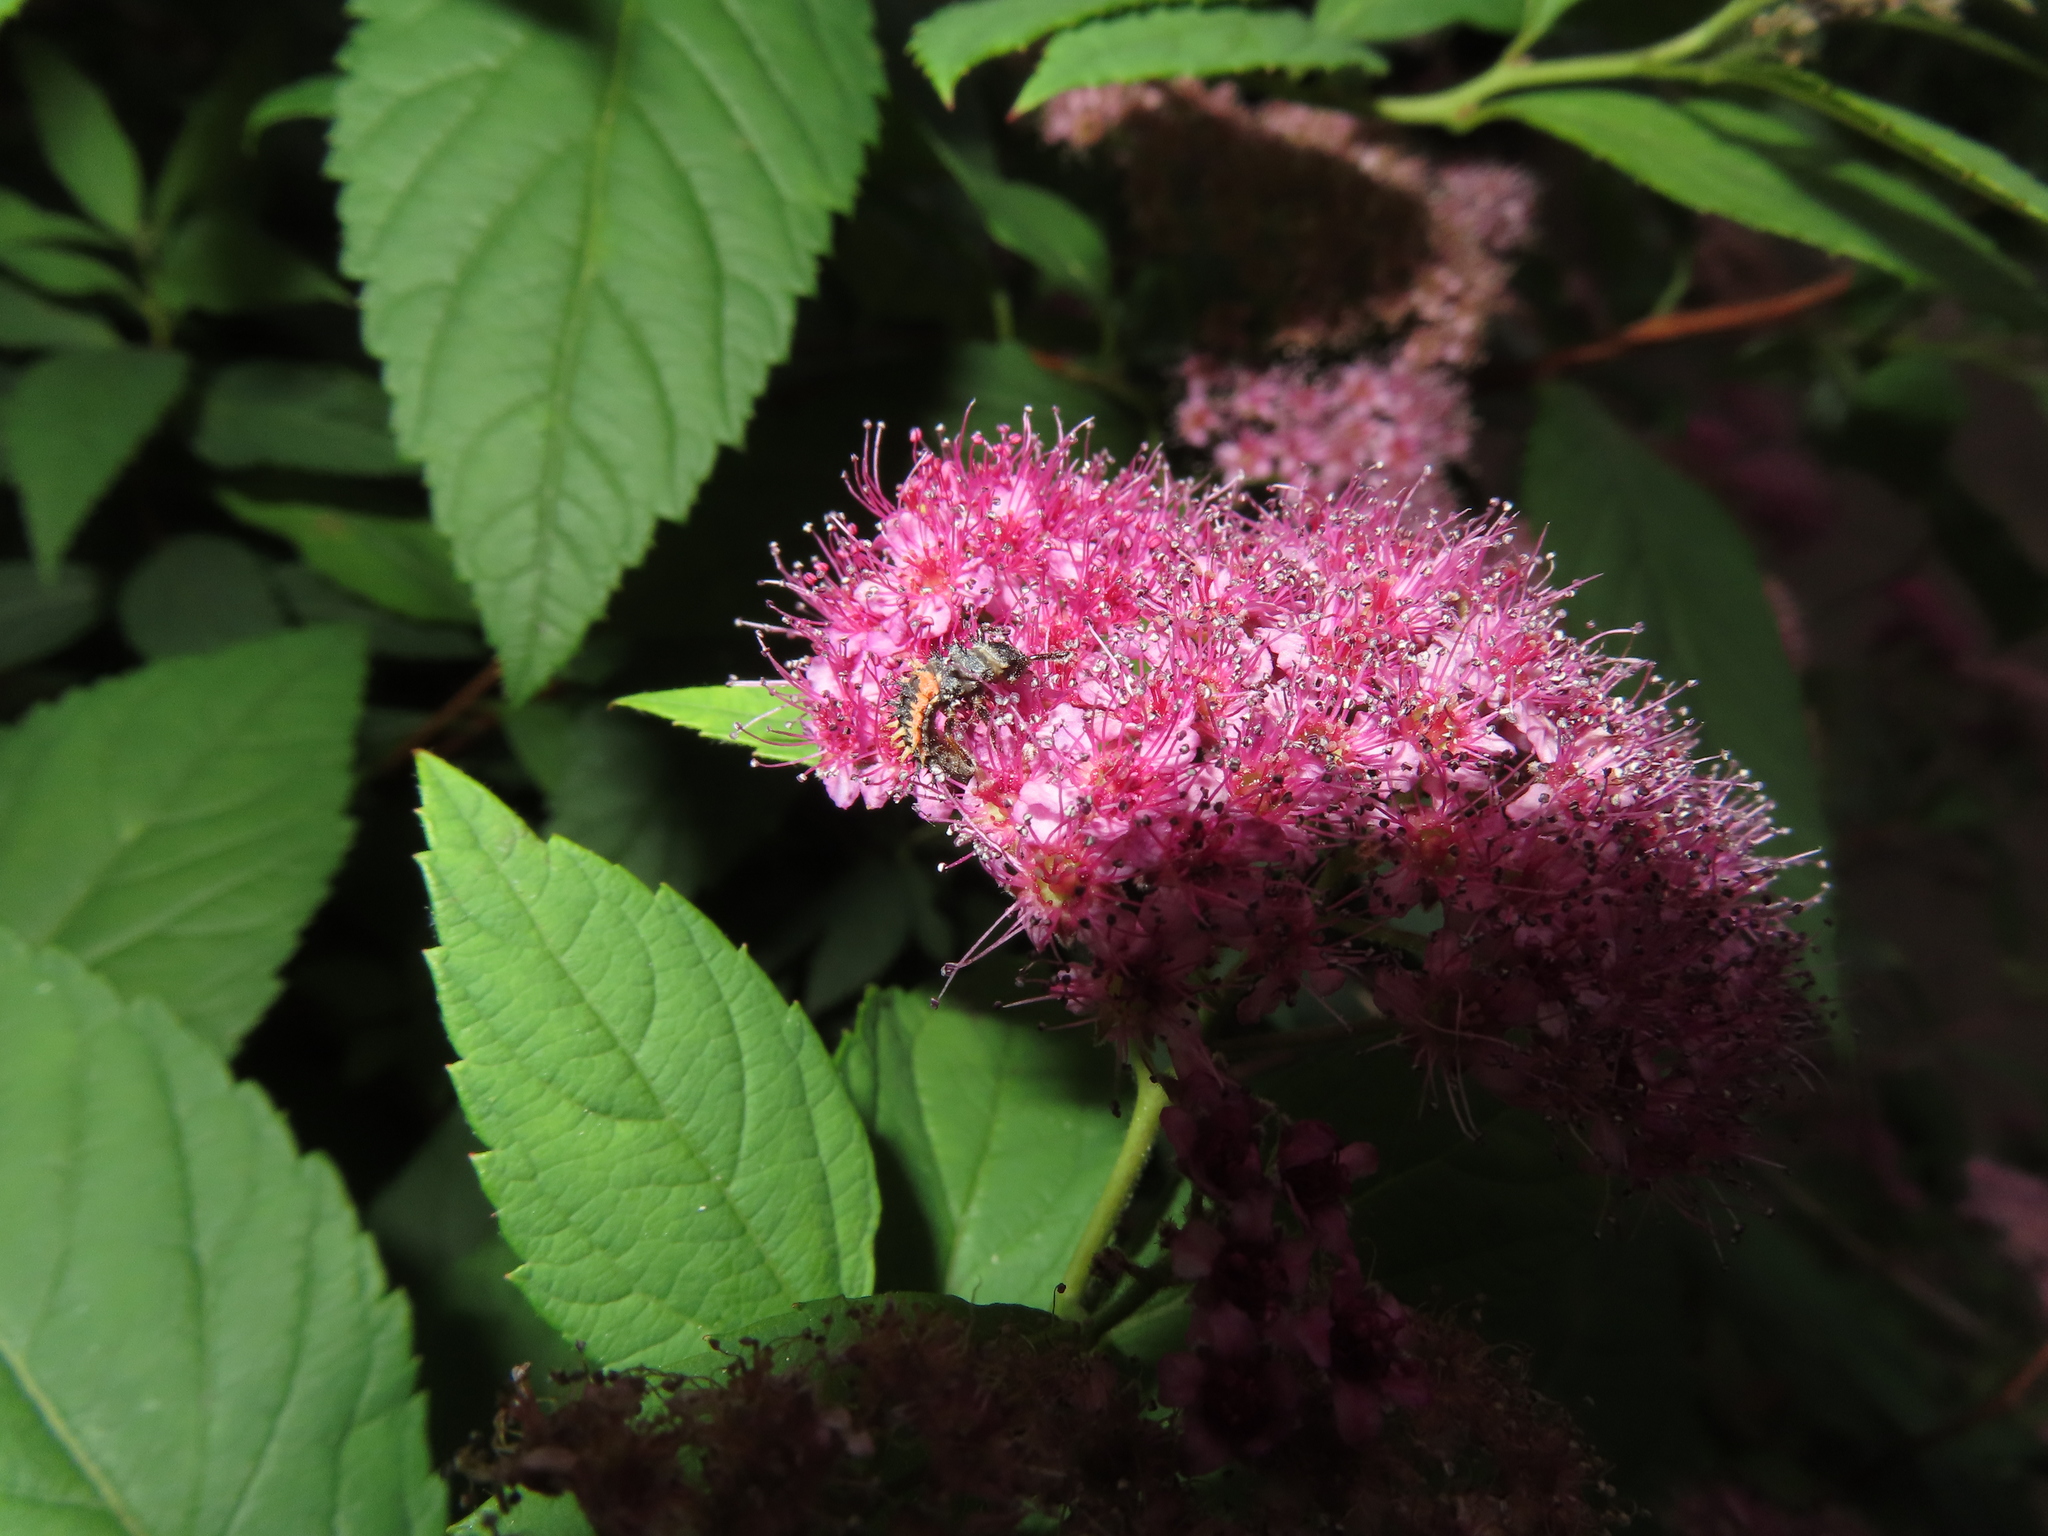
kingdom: Animalia
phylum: Arthropoda
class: Insecta
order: Coleoptera
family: Coccinellidae
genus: Harmonia
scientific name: Harmonia axyridis
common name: Harlequin ladybird
